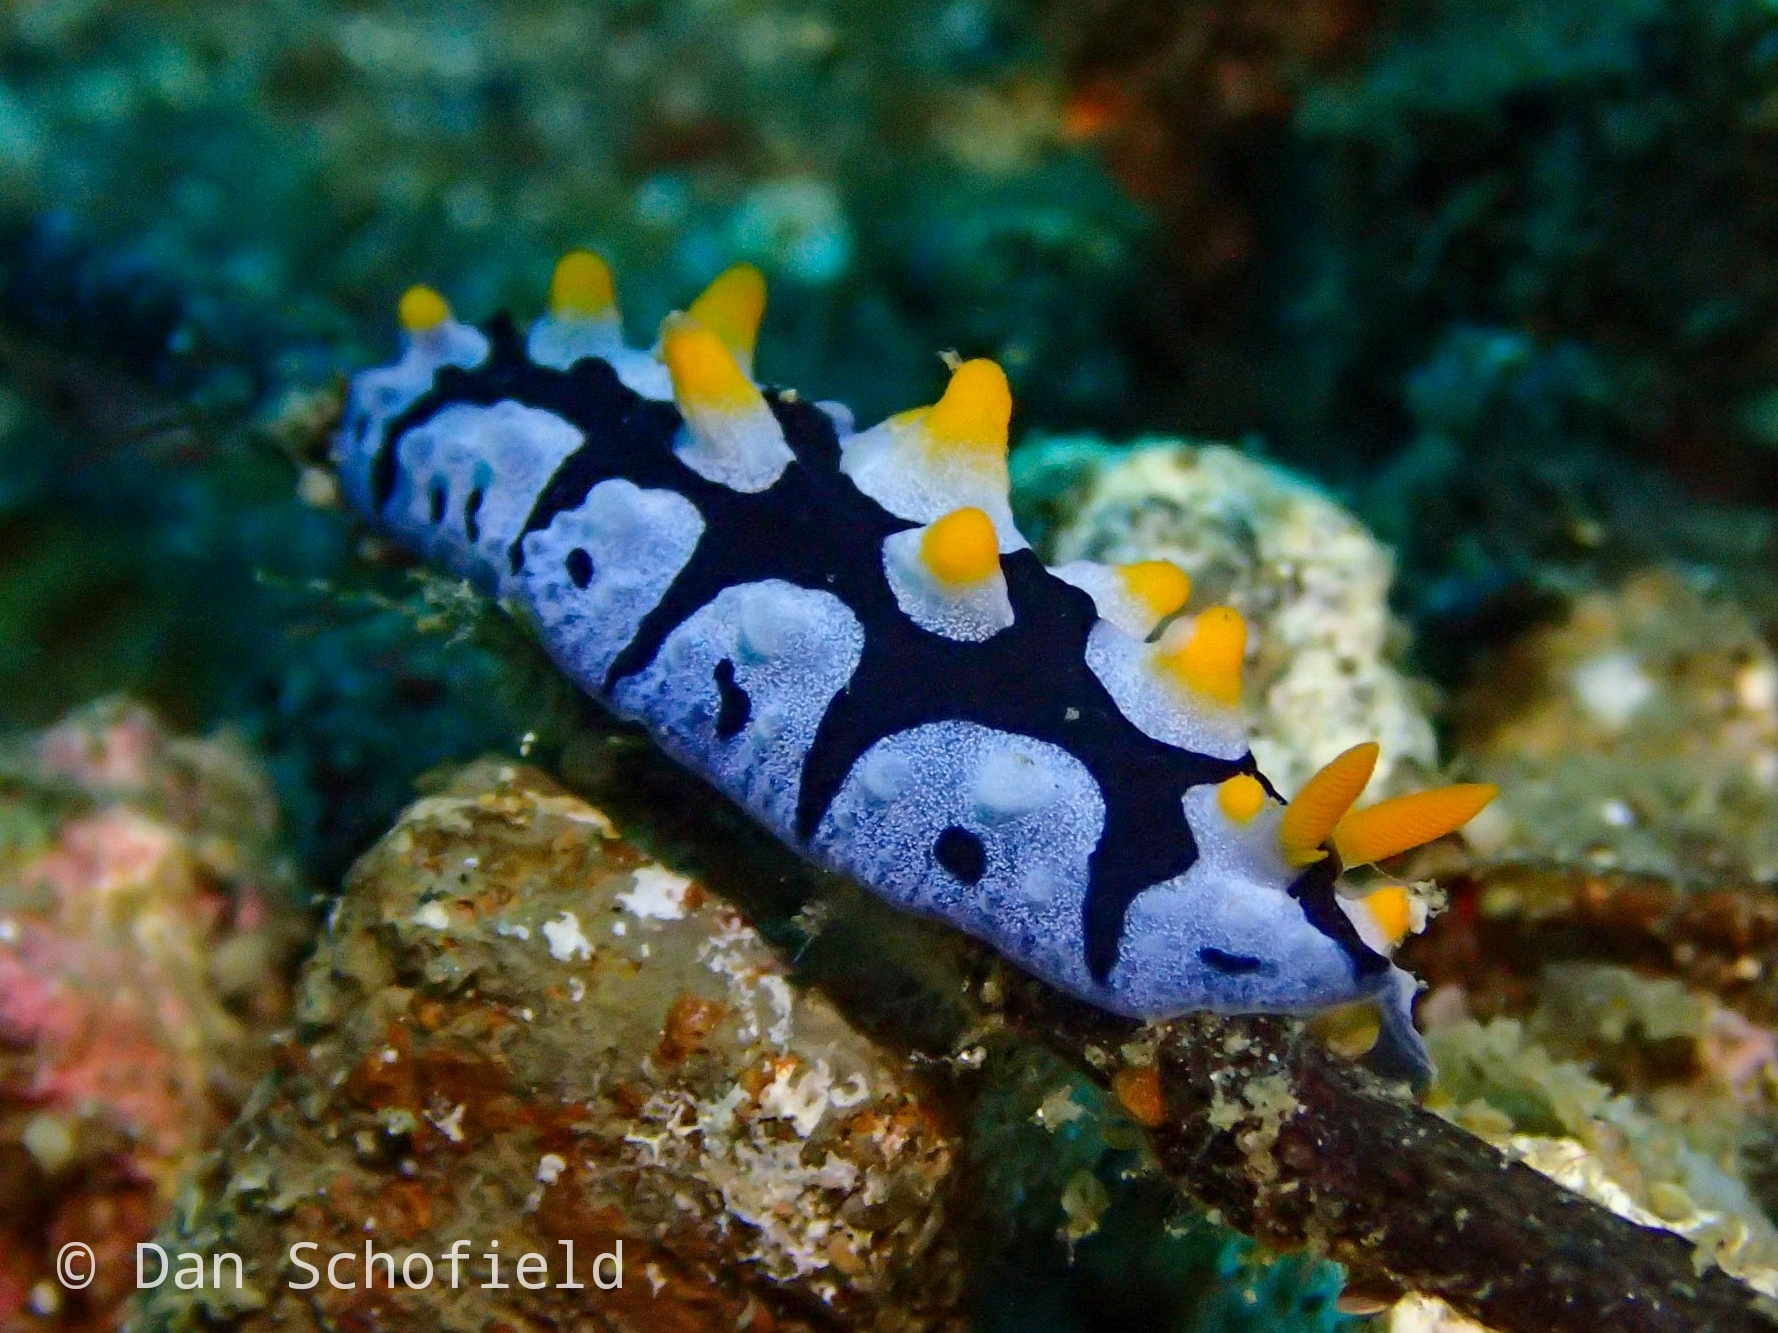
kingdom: Animalia
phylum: Mollusca
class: Gastropoda
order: Nudibranchia
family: Phyllidiidae
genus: Phyllidia
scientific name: Phyllidia picta
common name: Black-rayed phyllidia
